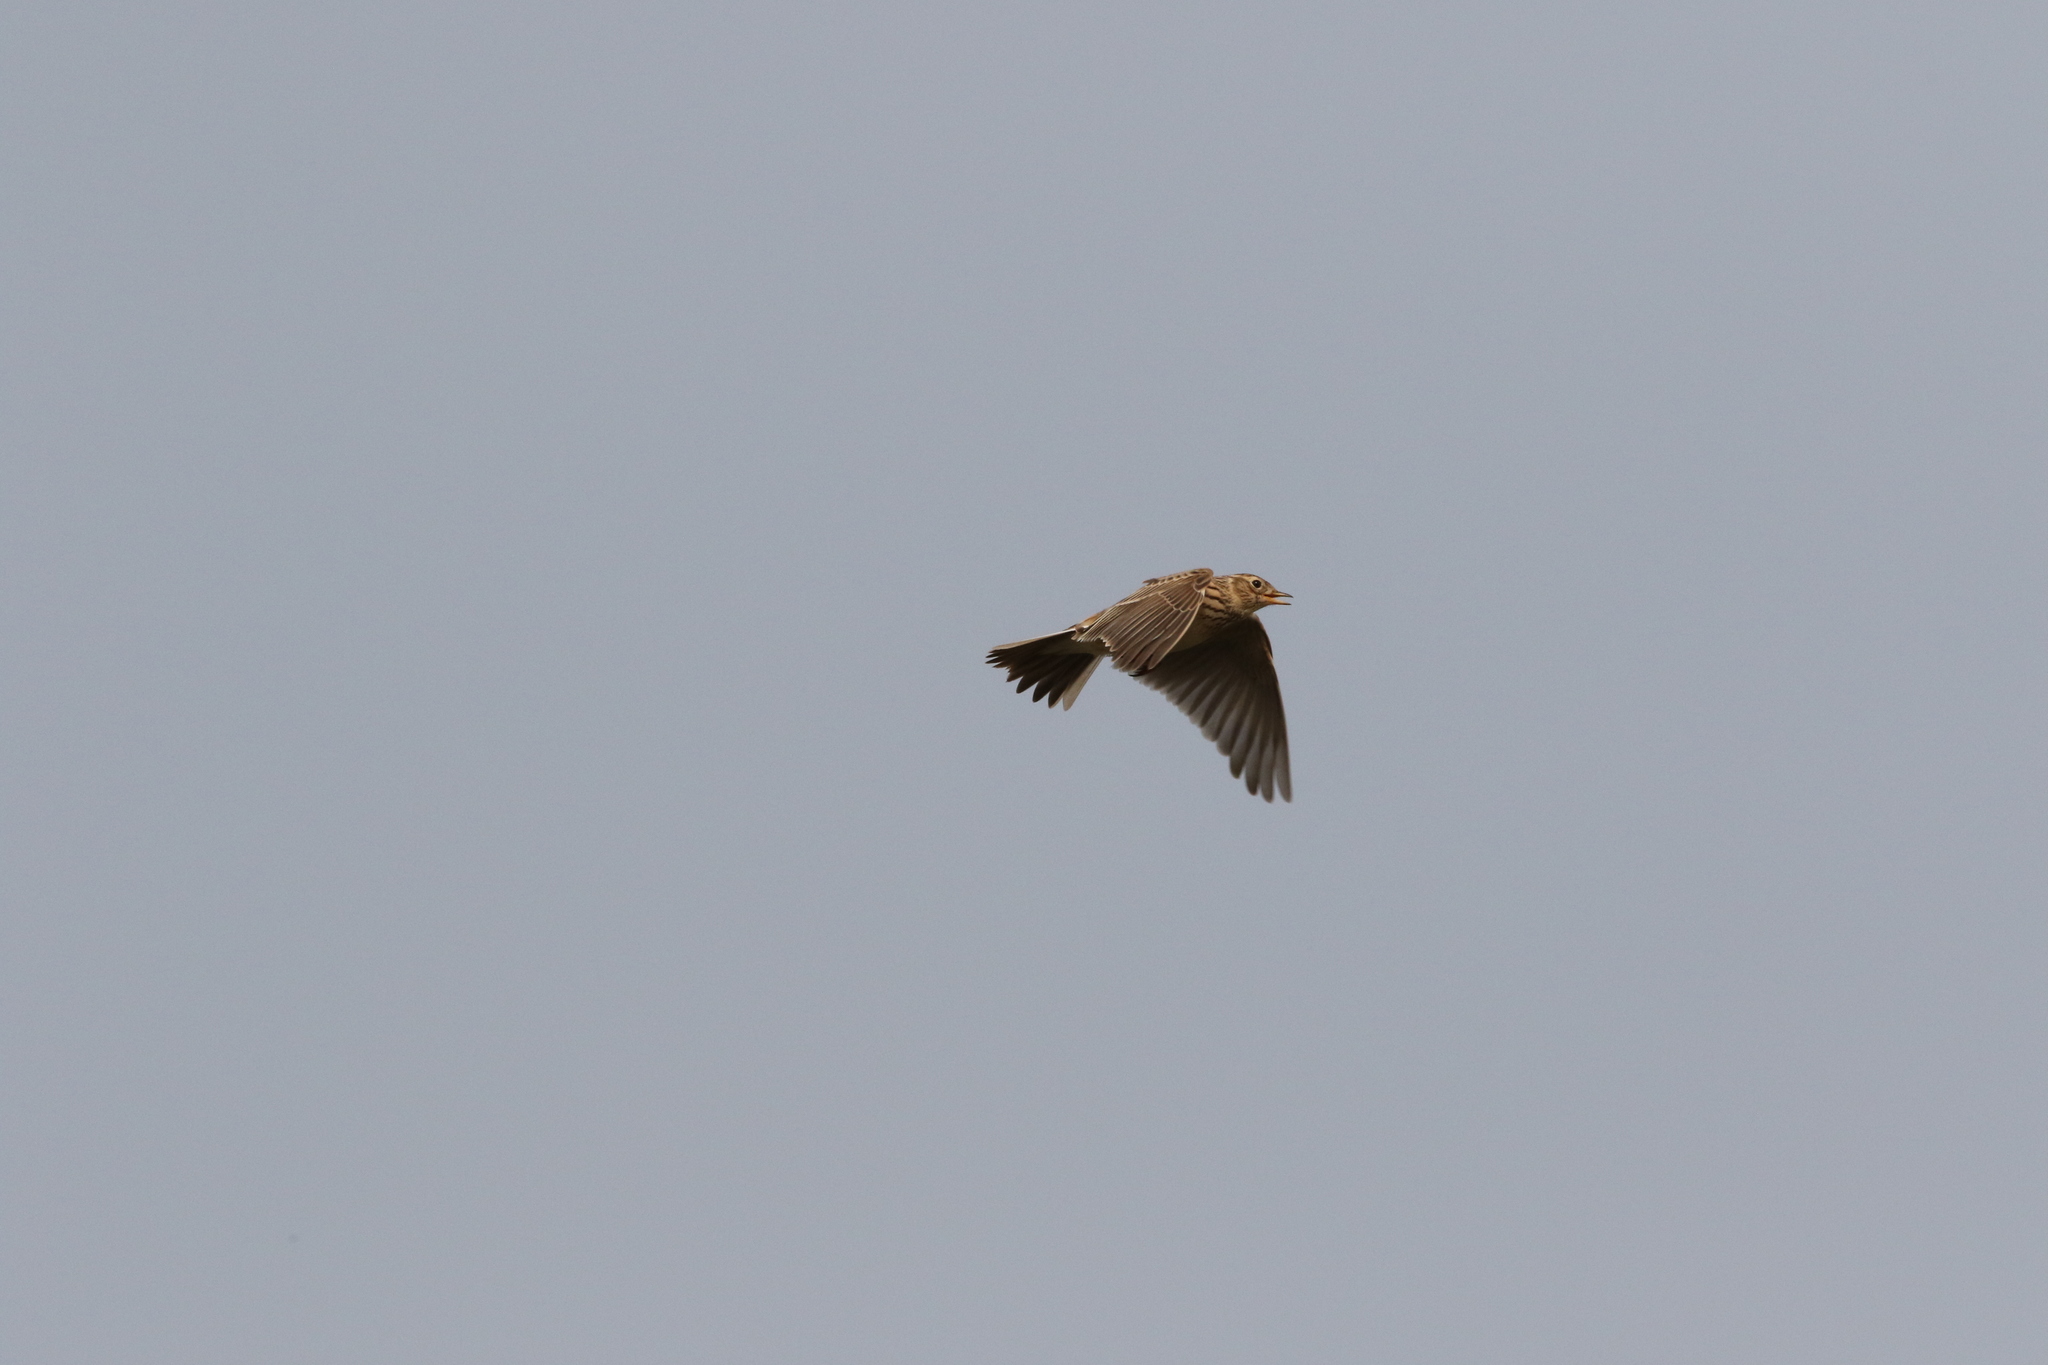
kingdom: Animalia
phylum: Chordata
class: Aves
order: Passeriformes
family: Alaudidae
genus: Alauda
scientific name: Alauda arvensis
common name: Eurasian skylark
